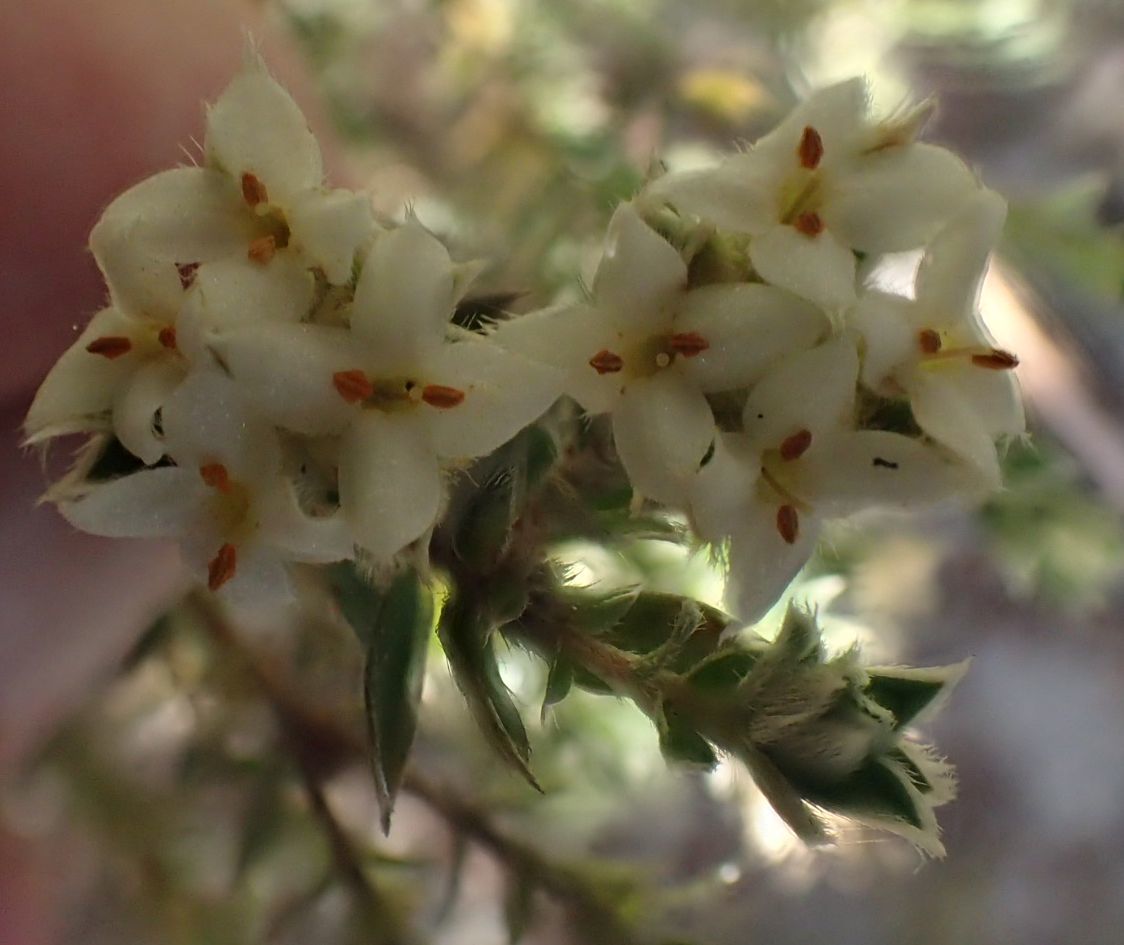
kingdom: Plantae
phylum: Tracheophyta
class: Magnoliopsida
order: Malvales
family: Thymelaeaceae
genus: Pimelea
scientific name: Pimelea pseudolyallii
